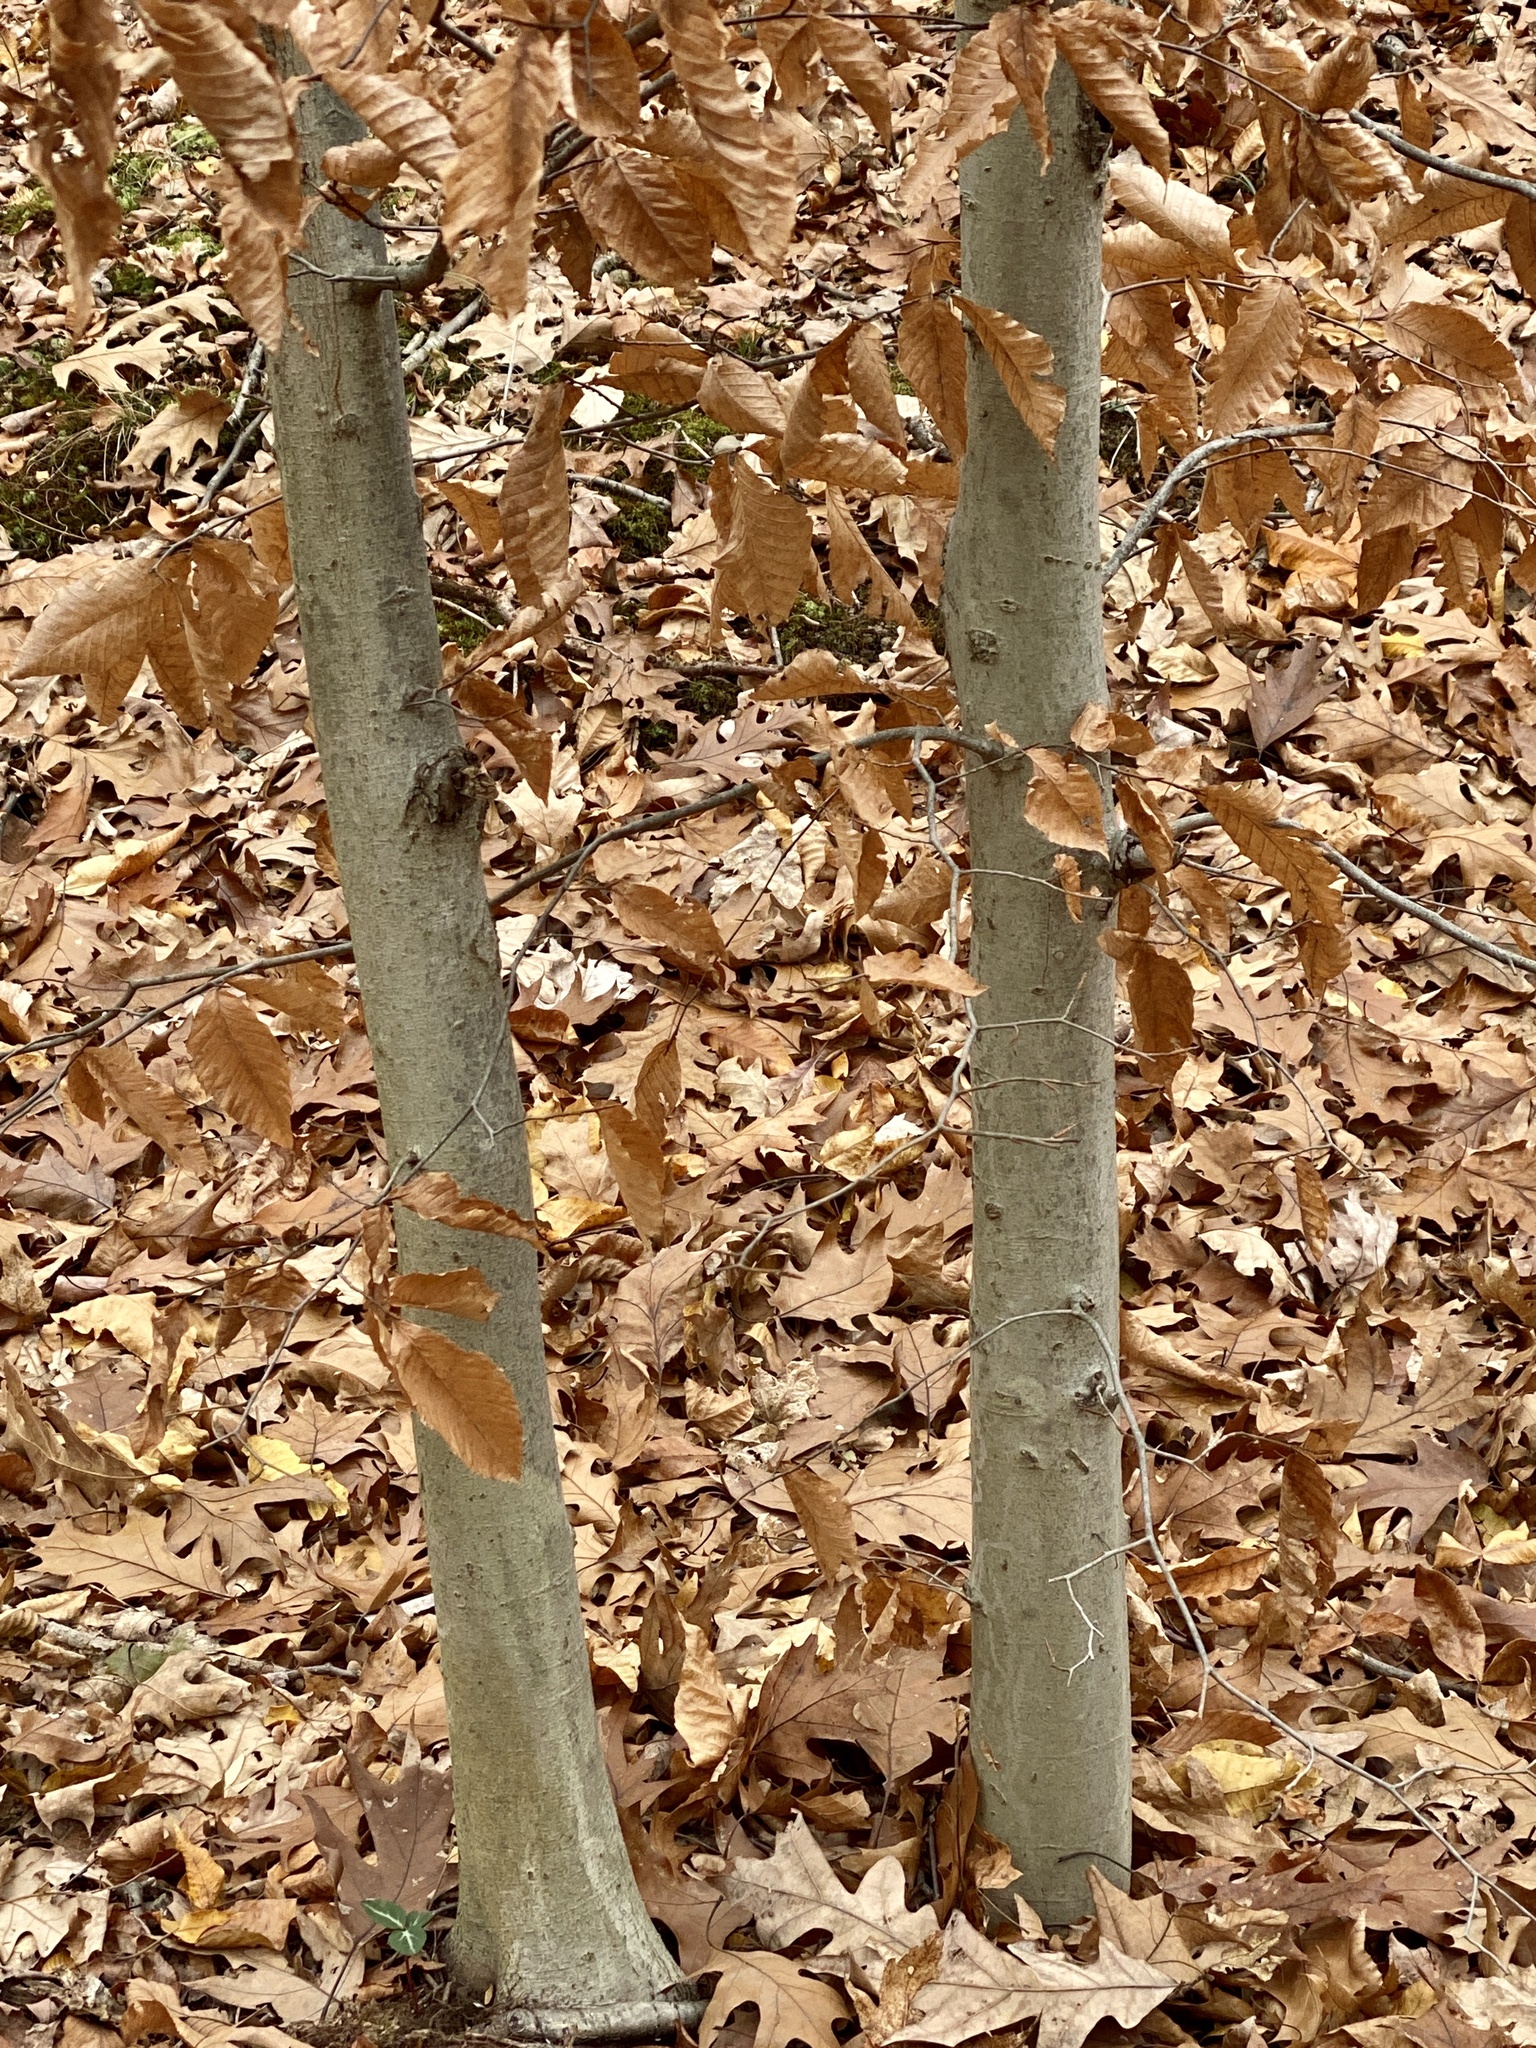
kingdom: Plantae
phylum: Tracheophyta
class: Magnoliopsida
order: Fagales
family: Fagaceae
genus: Fagus
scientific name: Fagus grandifolia
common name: American beech
